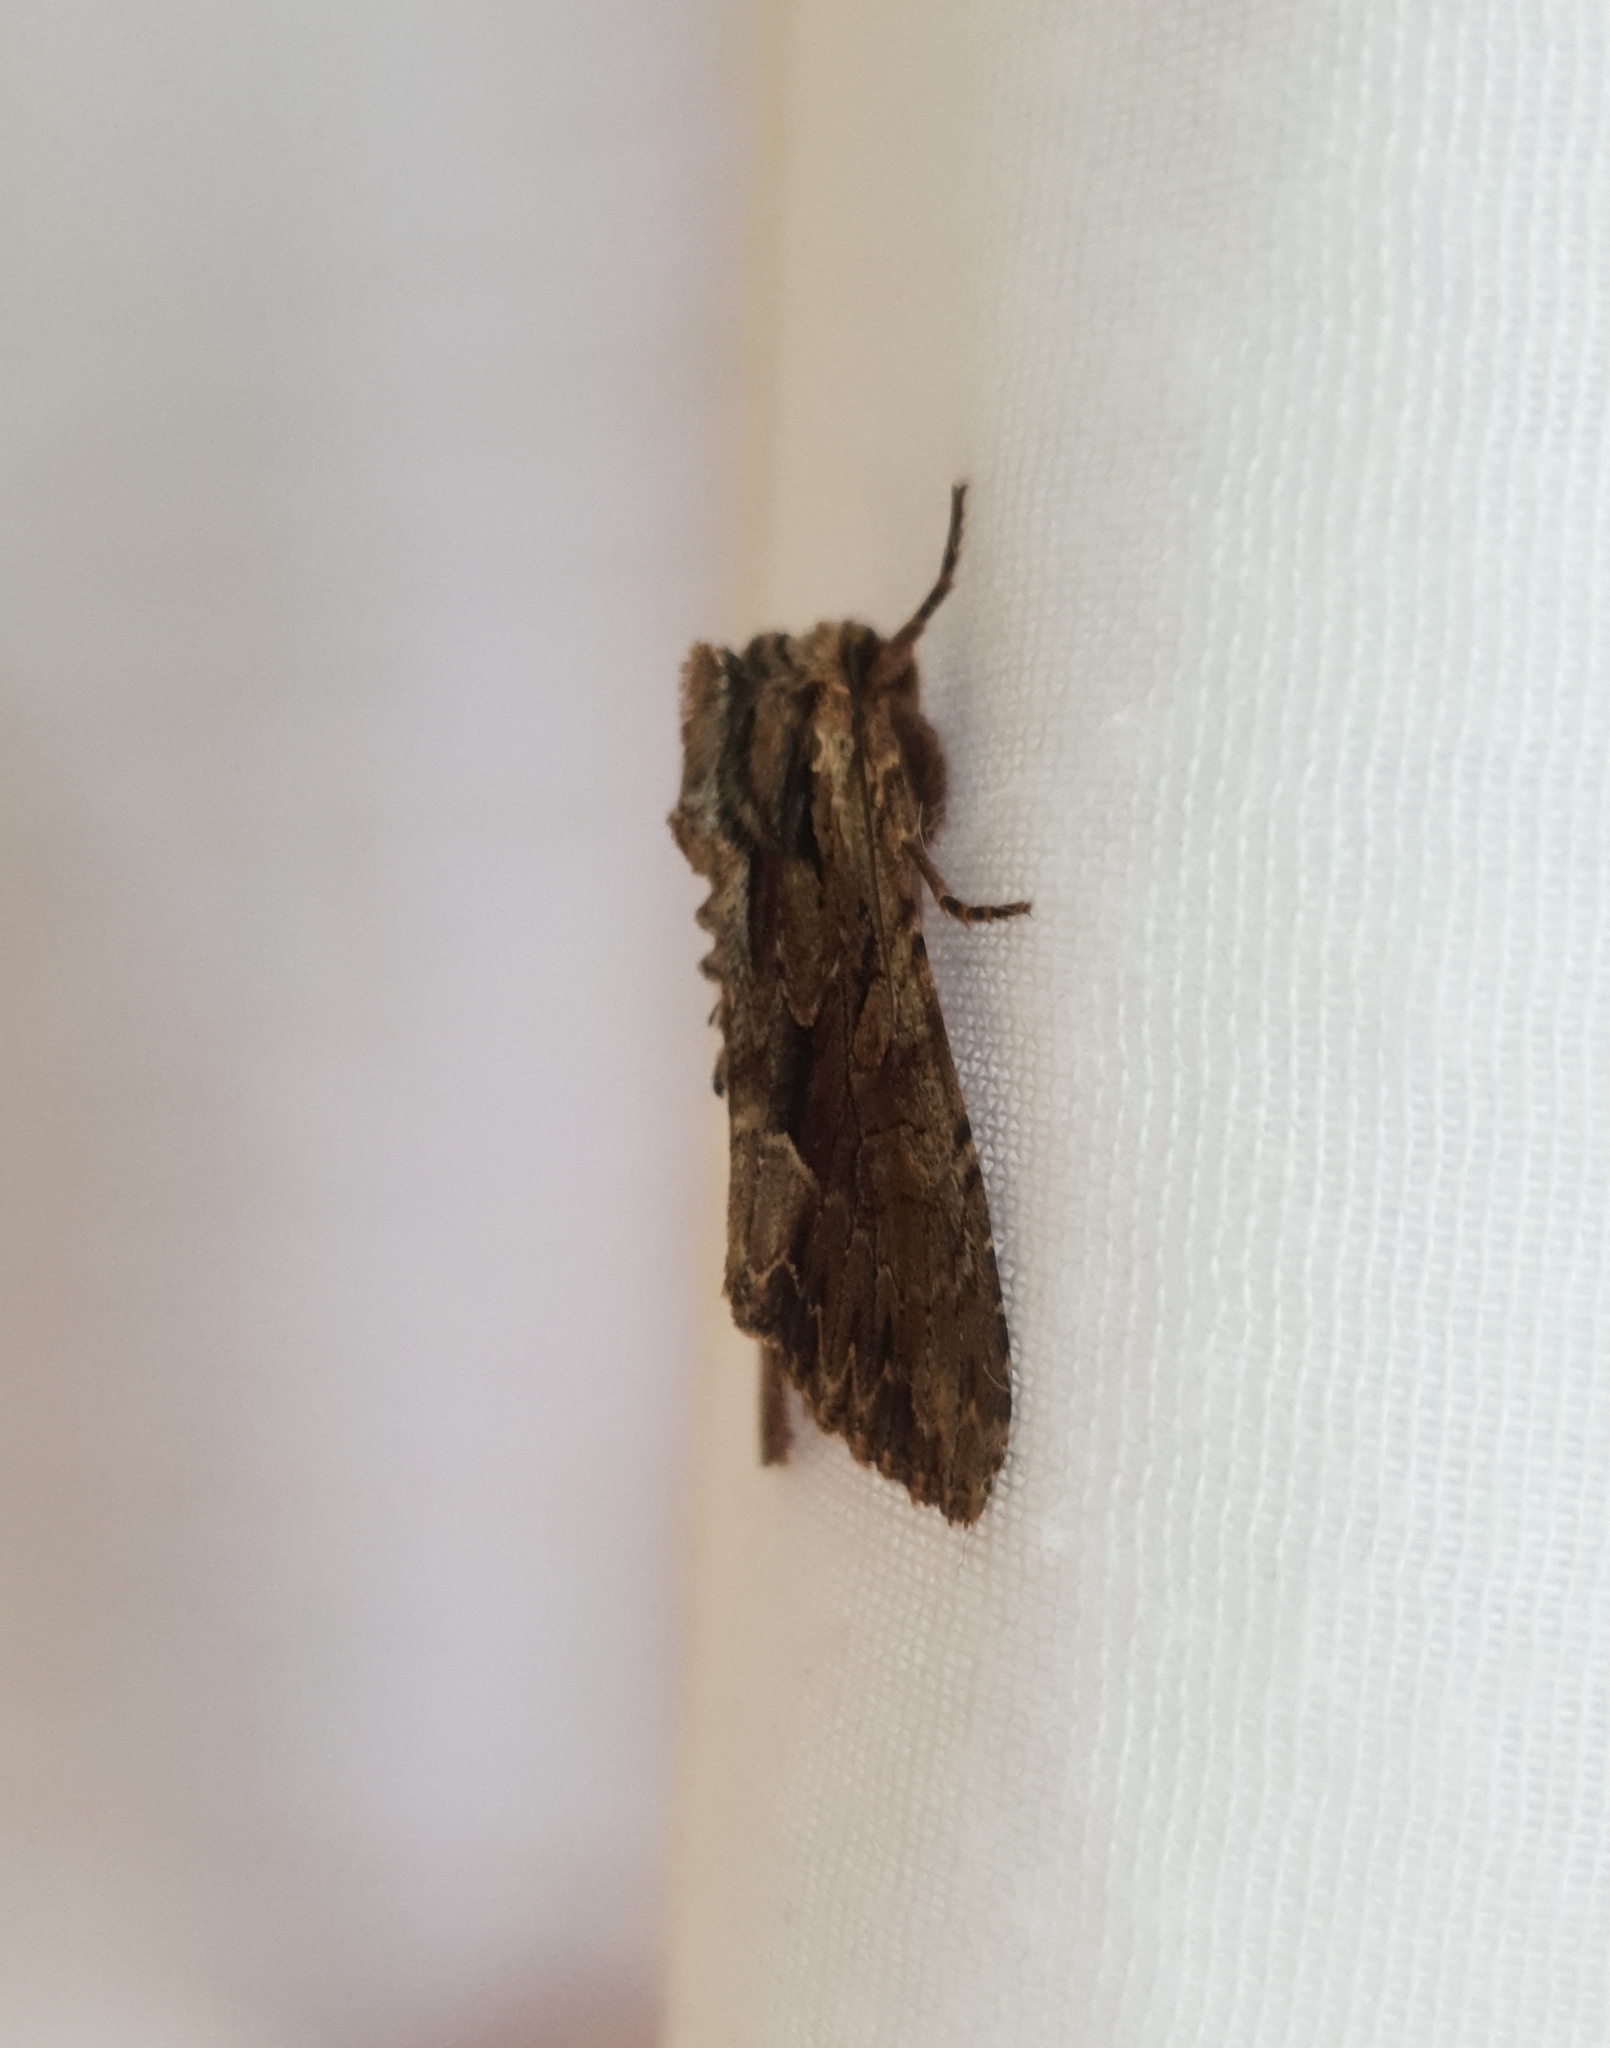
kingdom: Animalia
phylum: Arthropoda
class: Insecta
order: Lepidoptera
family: Noctuidae
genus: Apamea
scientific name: Apamea monoglypha
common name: Dark arches
